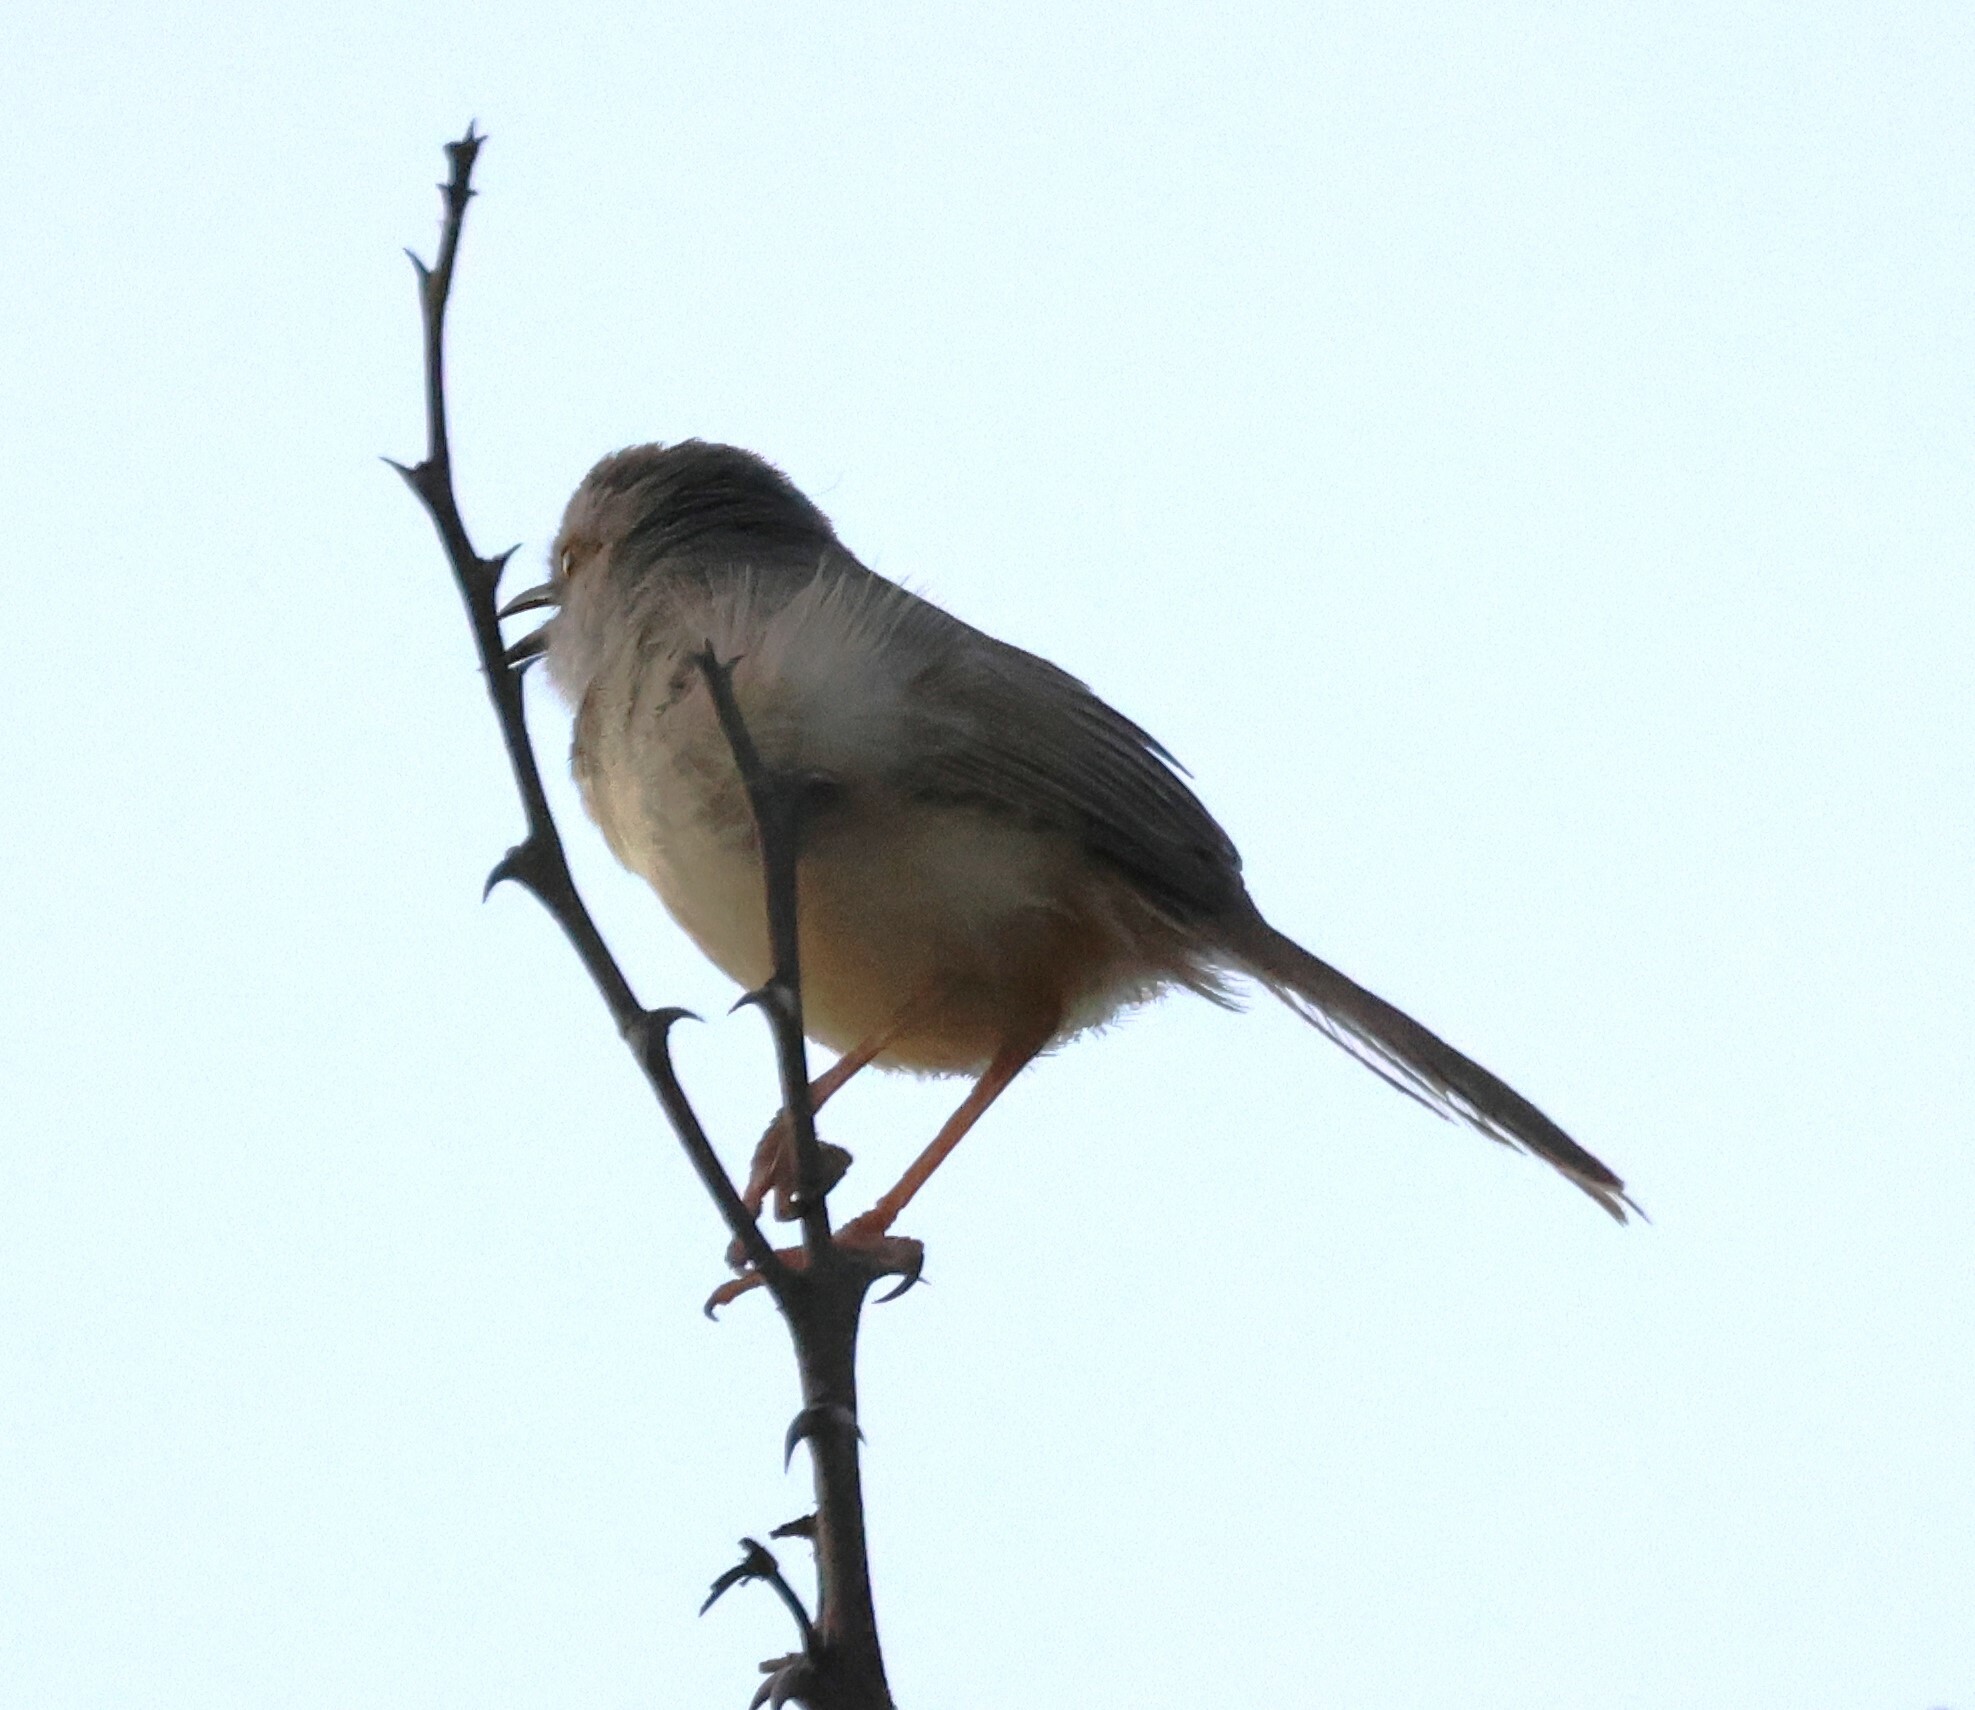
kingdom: Animalia
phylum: Chordata
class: Aves
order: Passeriformes
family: Cisticolidae
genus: Prinia
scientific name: Prinia flavicans
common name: Black-chested prinia
